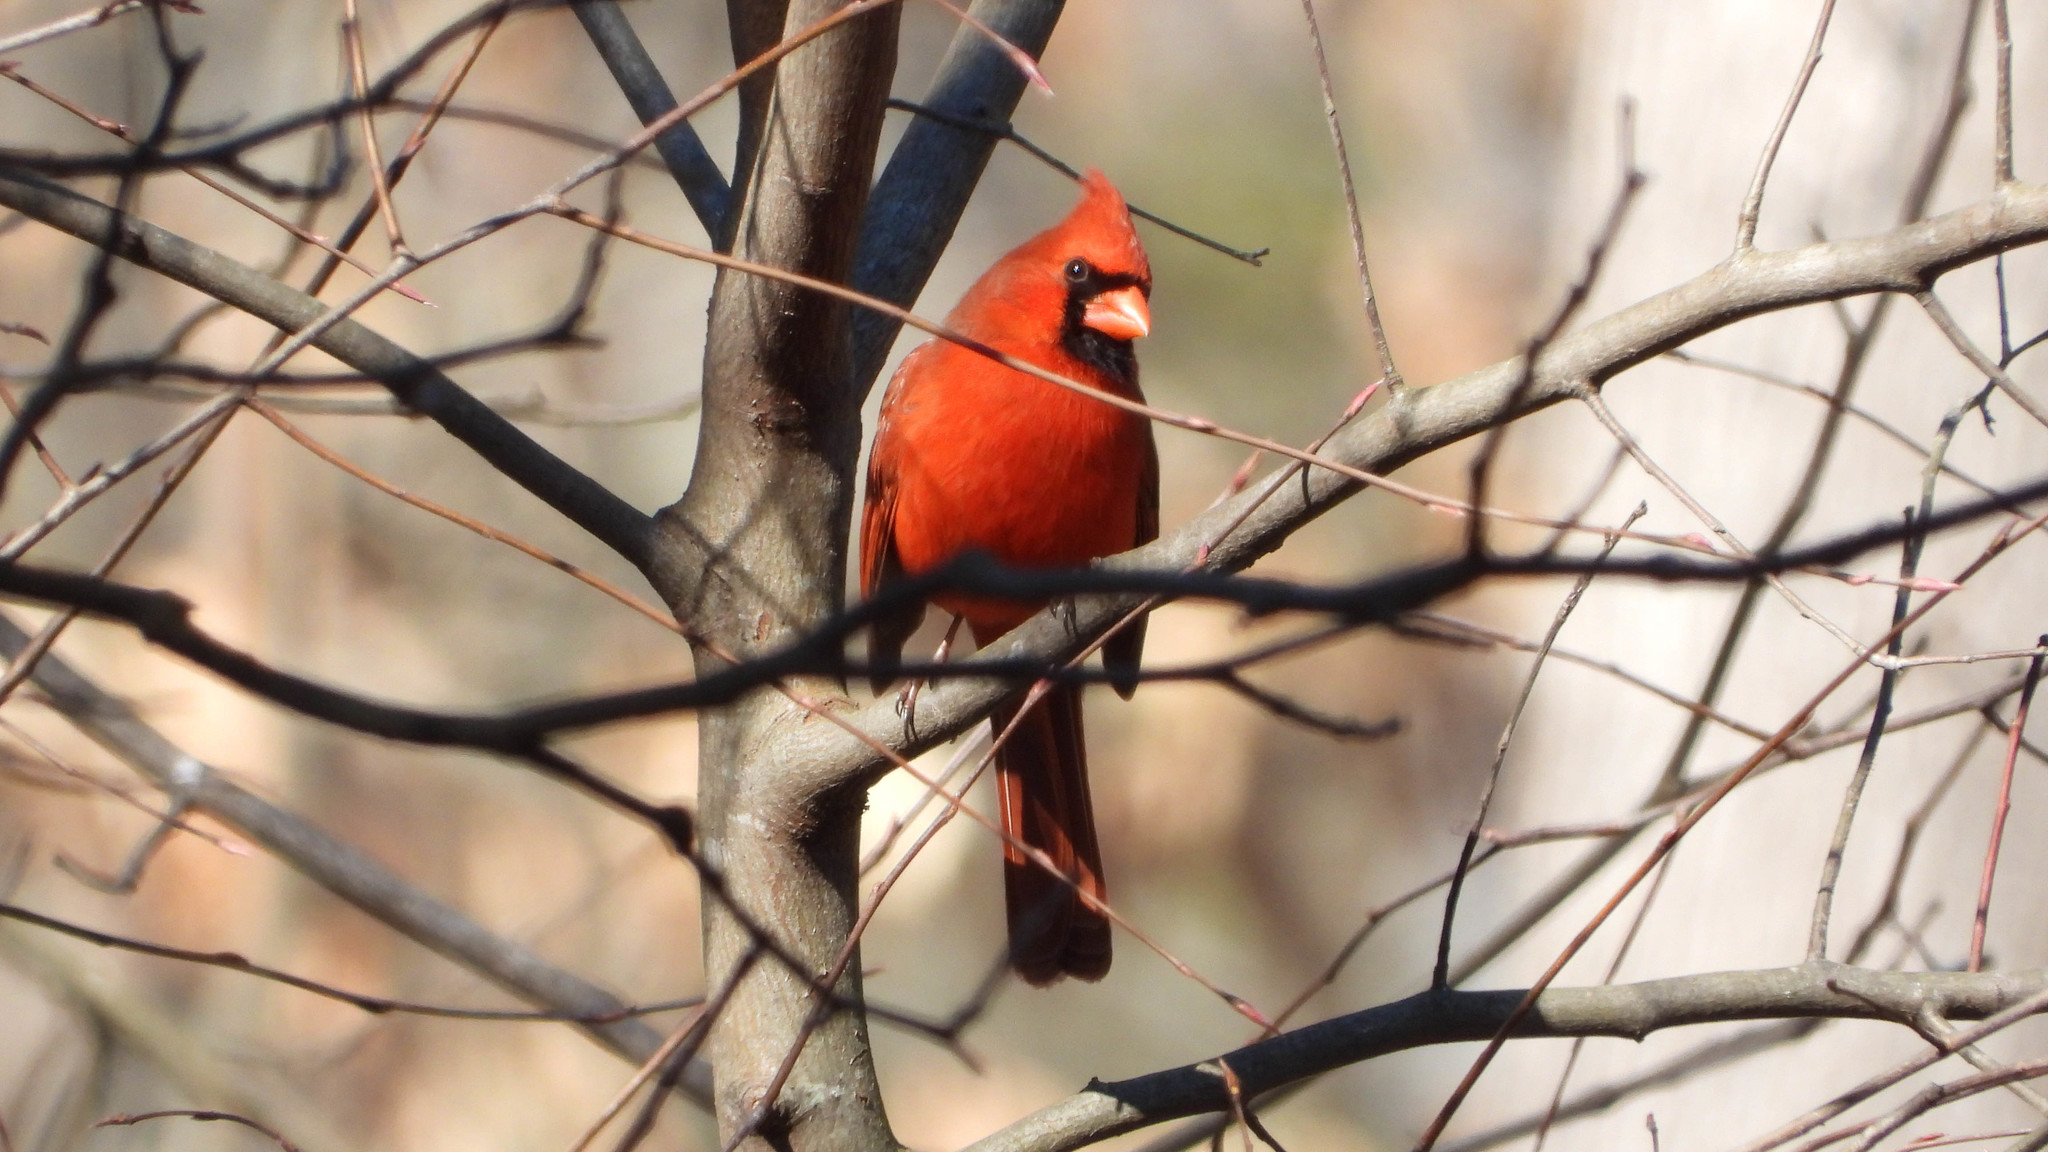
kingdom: Animalia
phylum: Chordata
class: Aves
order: Passeriformes
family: Cardinalidae
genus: Cardinalis
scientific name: Cardinalis cardinalis
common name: Northern cardinal
